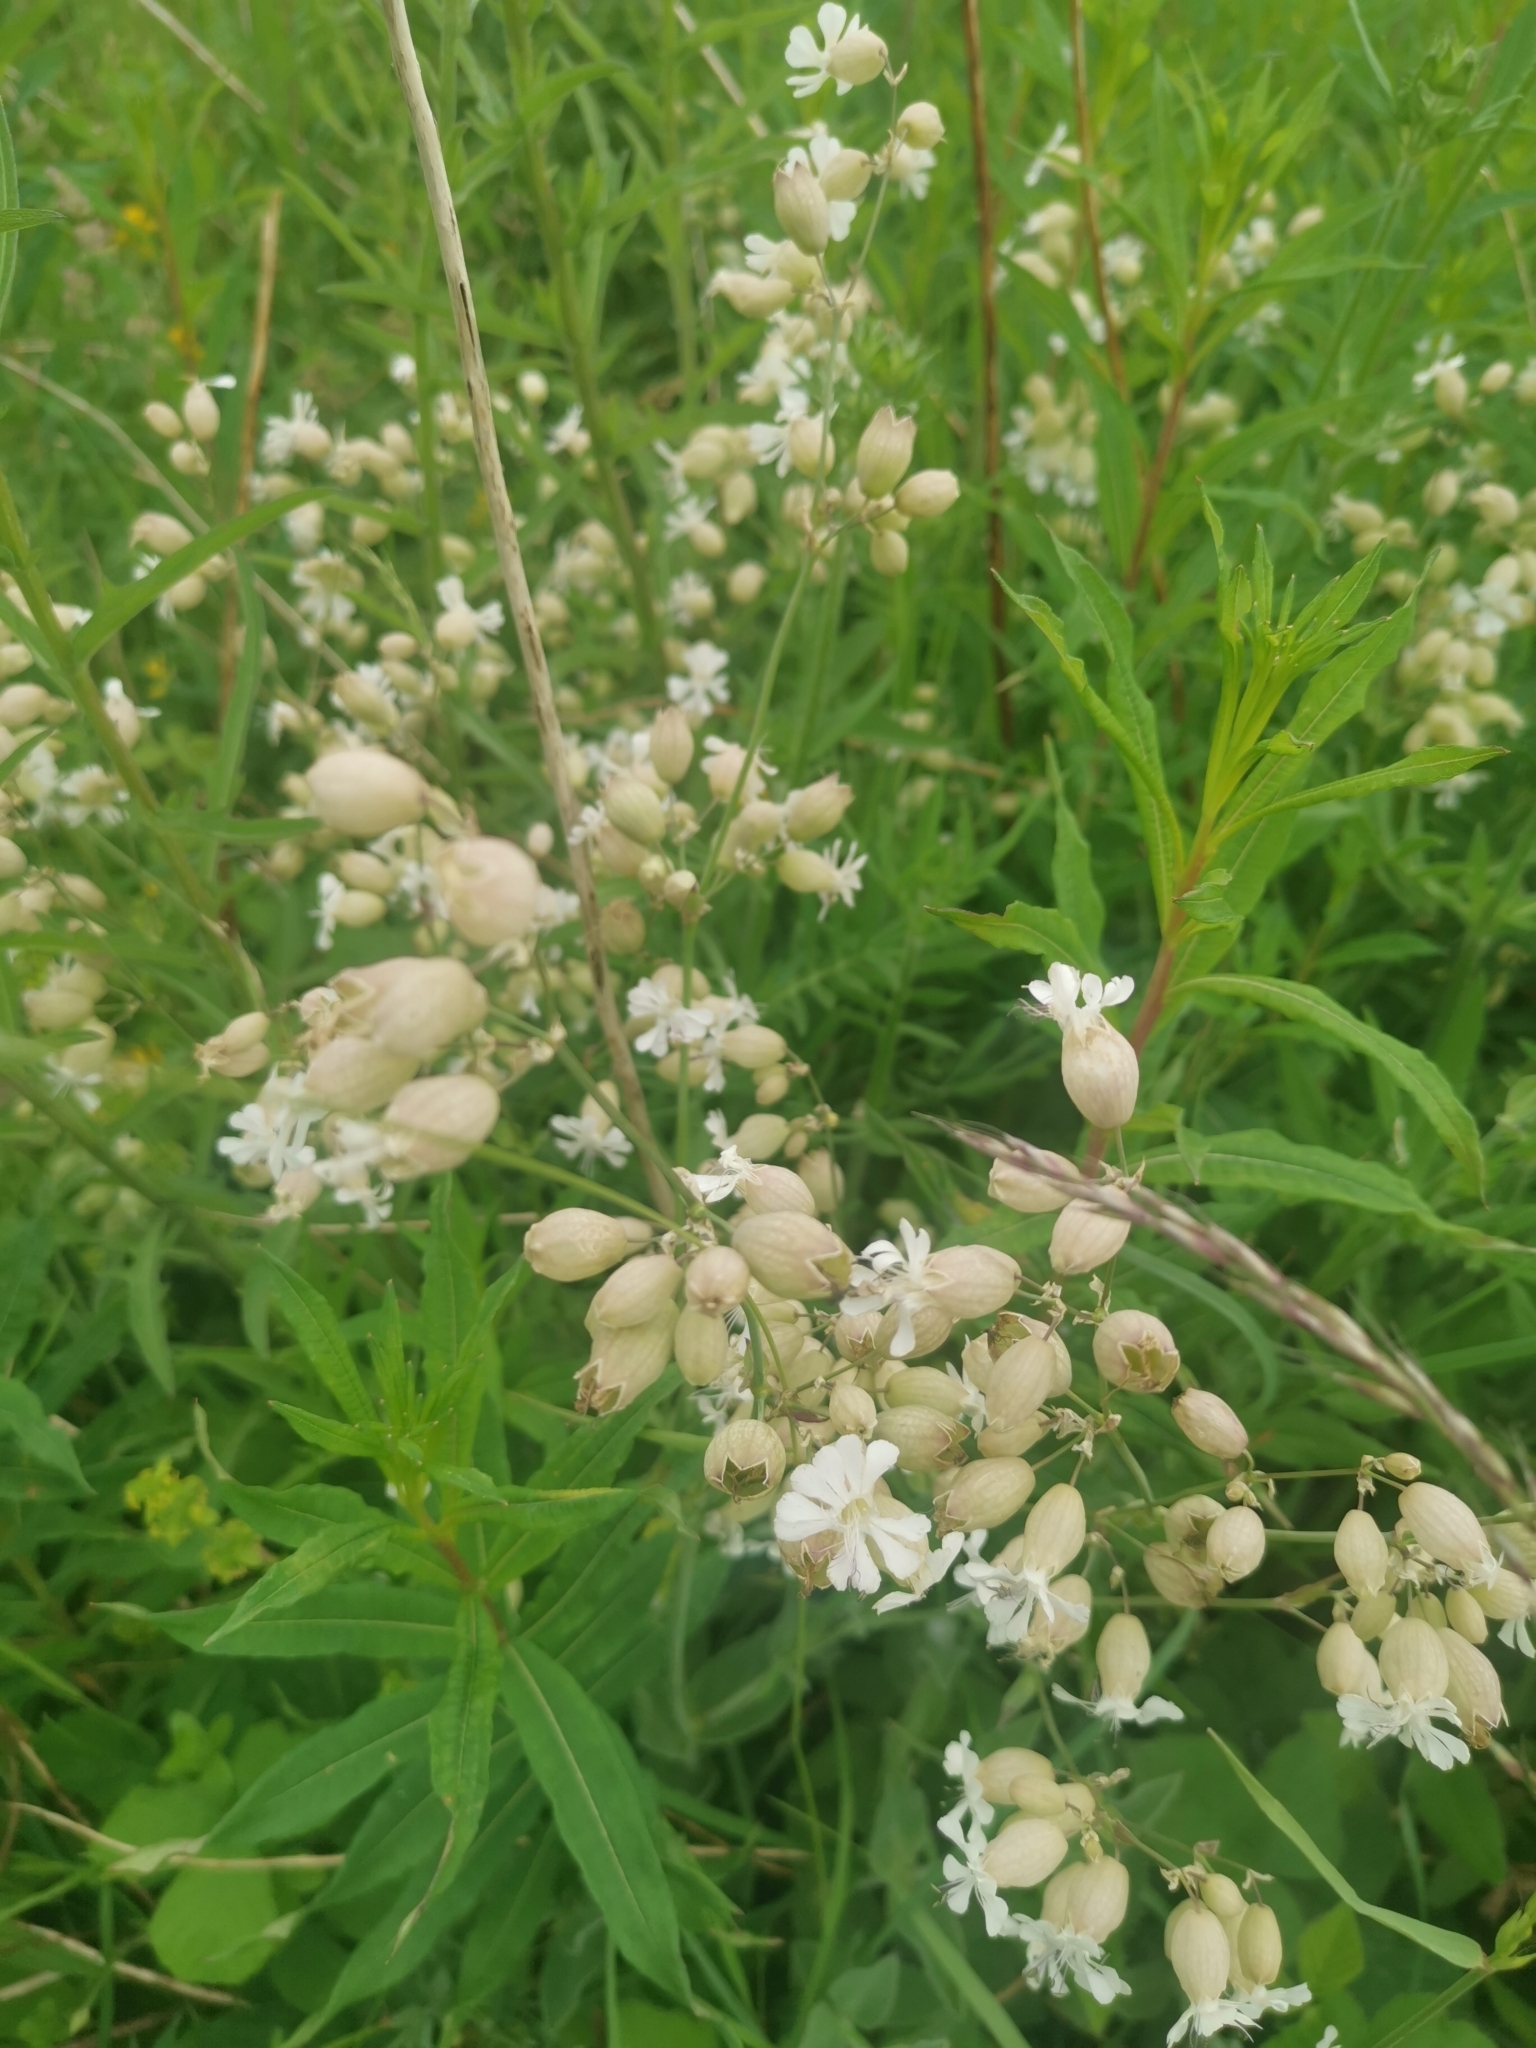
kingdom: Plantae
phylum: Tracheophyta
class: Magnoliopsida
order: Caryophyllales
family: Caryophyllaceae
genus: Silene
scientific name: Silene vulgaris
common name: Bladder campion
